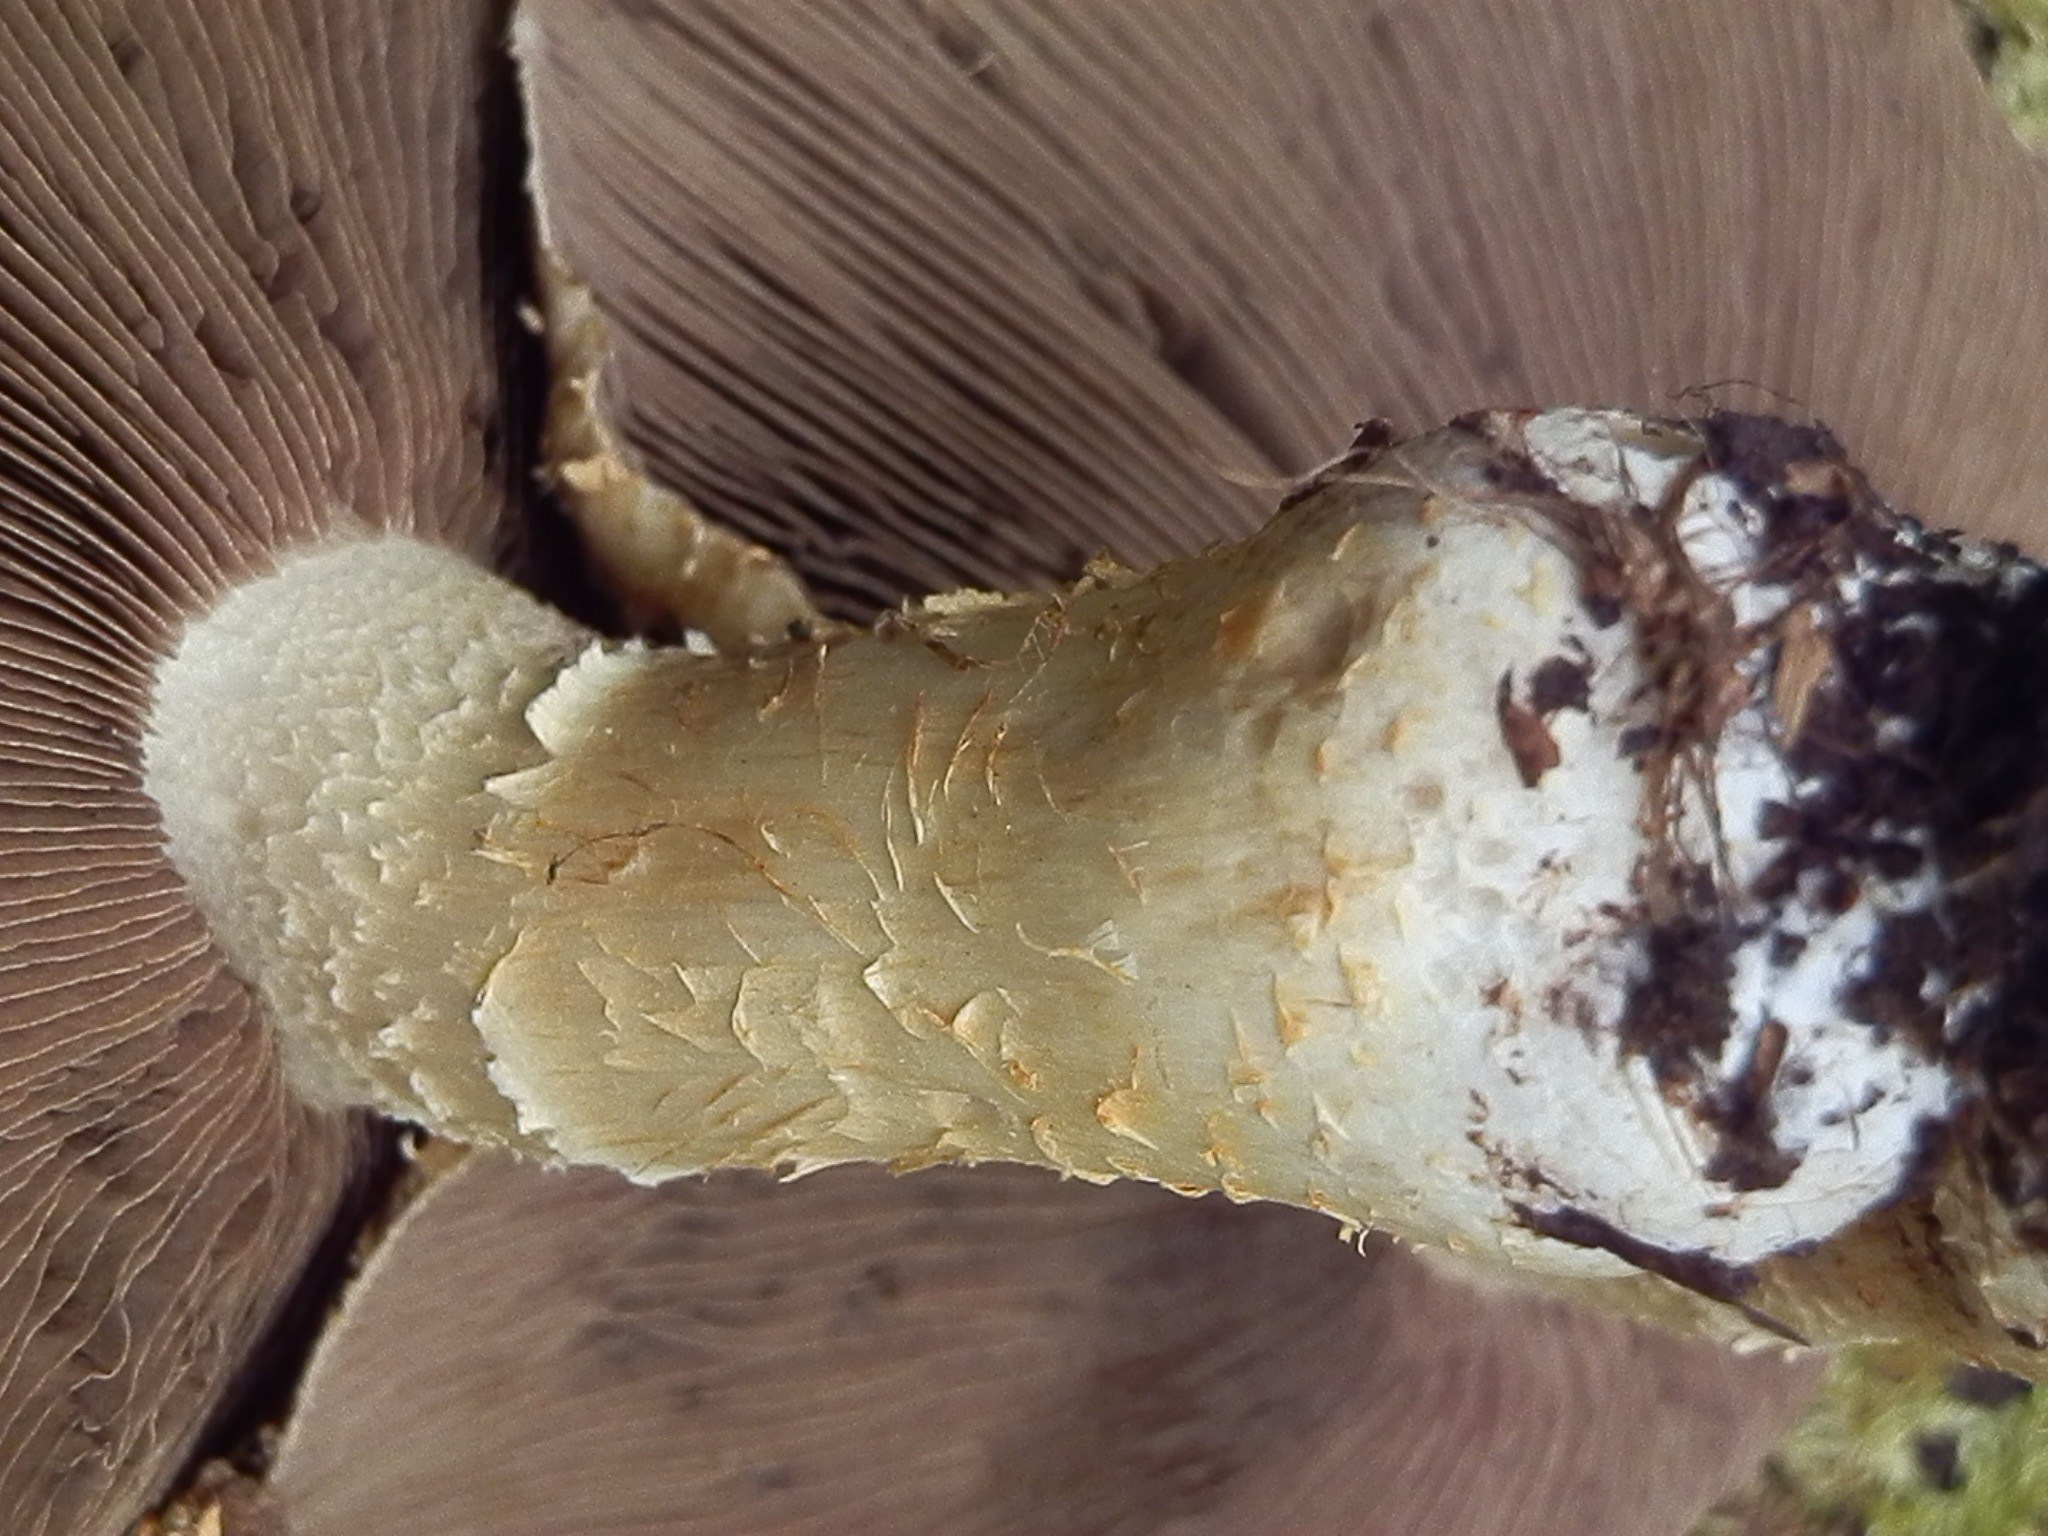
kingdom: Fungi
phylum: Basidiomycota
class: Agaricomycetes
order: Agaricales
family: Strophariaceae
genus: Stropharia
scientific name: Stropharia kauffmanii
